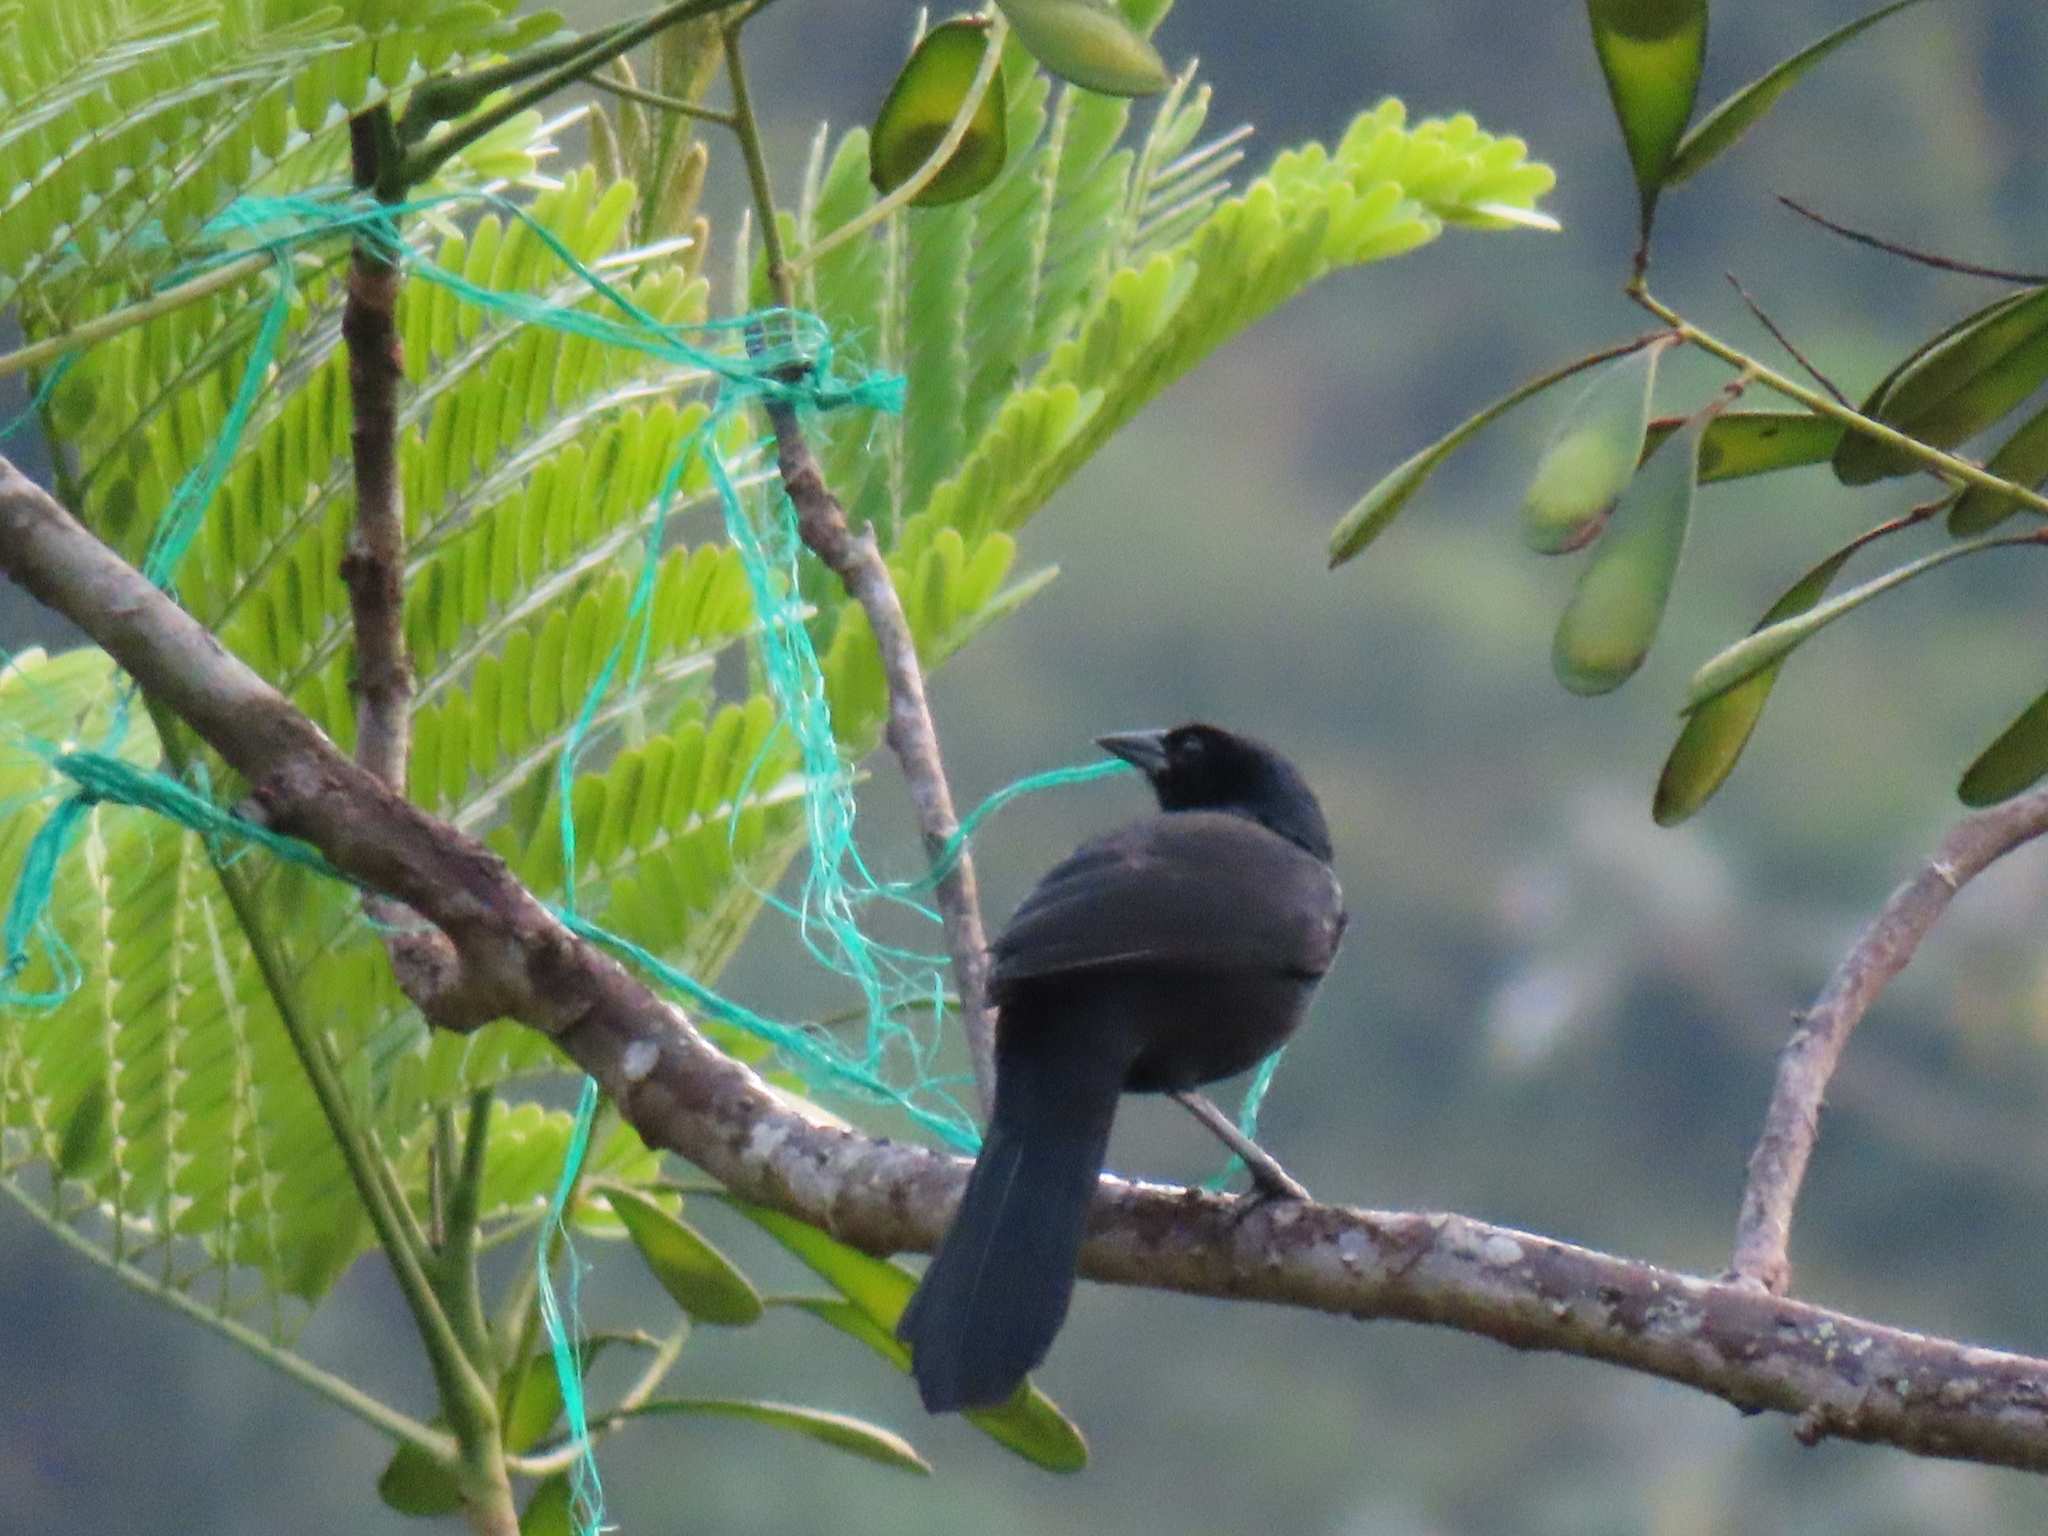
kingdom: Animalia
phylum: Chordata
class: Aves
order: Passeriformes
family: Icteridae
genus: Dives
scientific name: Dives dives
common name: Melodious blackbird
